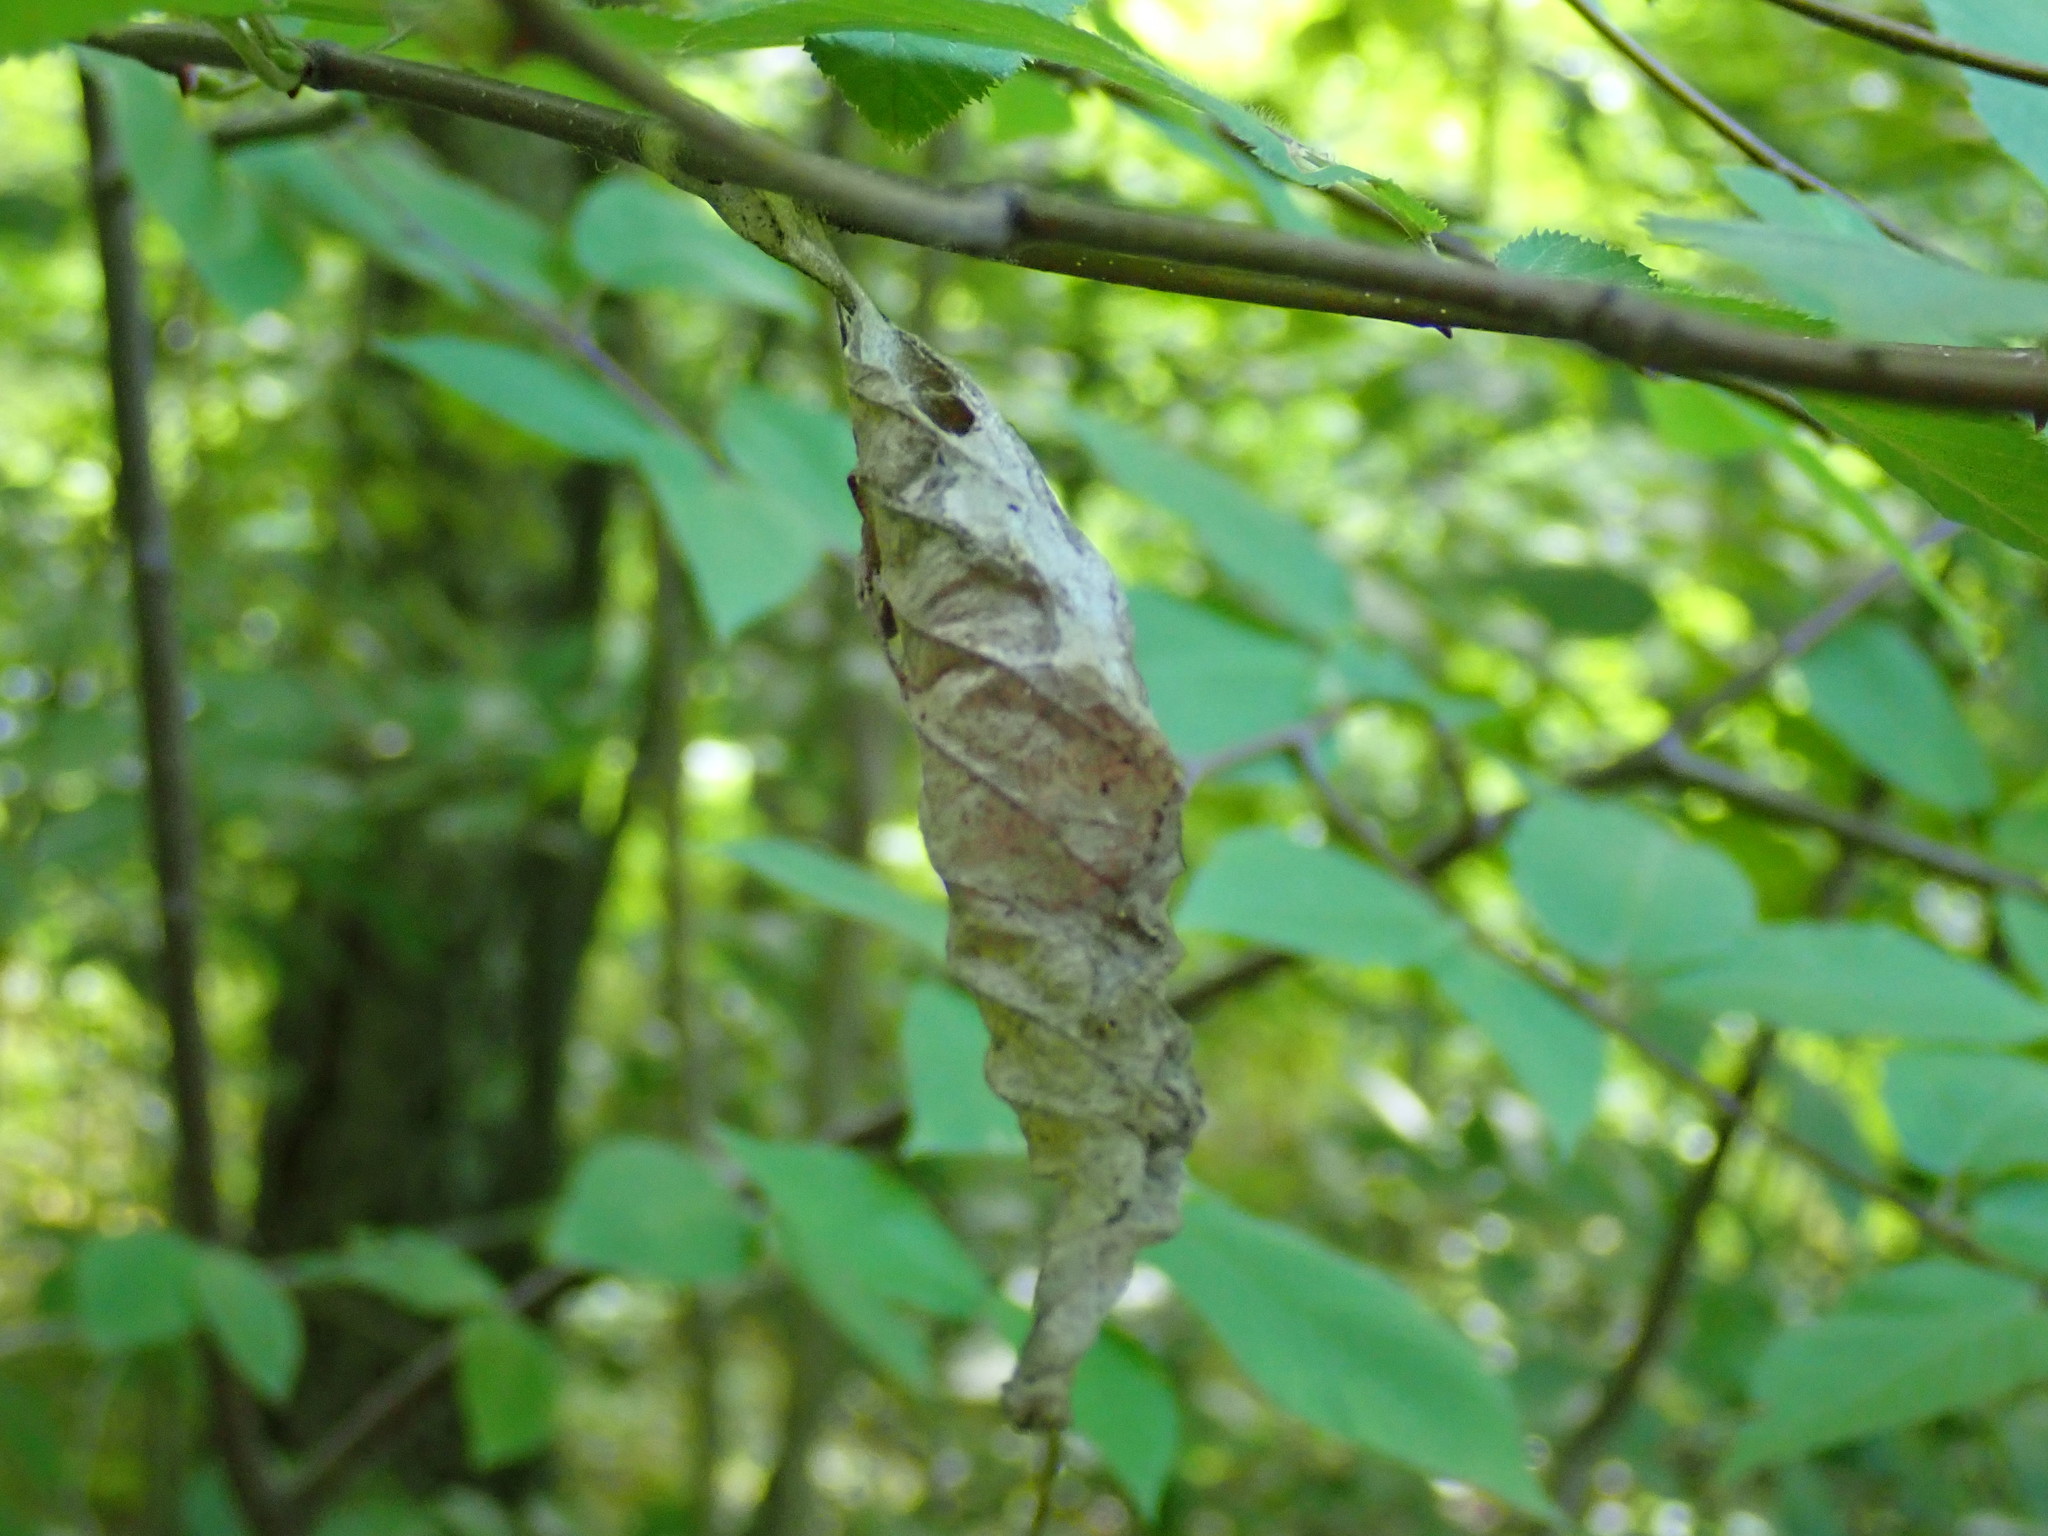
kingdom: Animalia
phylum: Arthropoda
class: Insecta
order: Lepidoptera
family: Saturniidae
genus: Callosamia
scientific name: Callosamia promethea
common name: Promethea silkmoth
